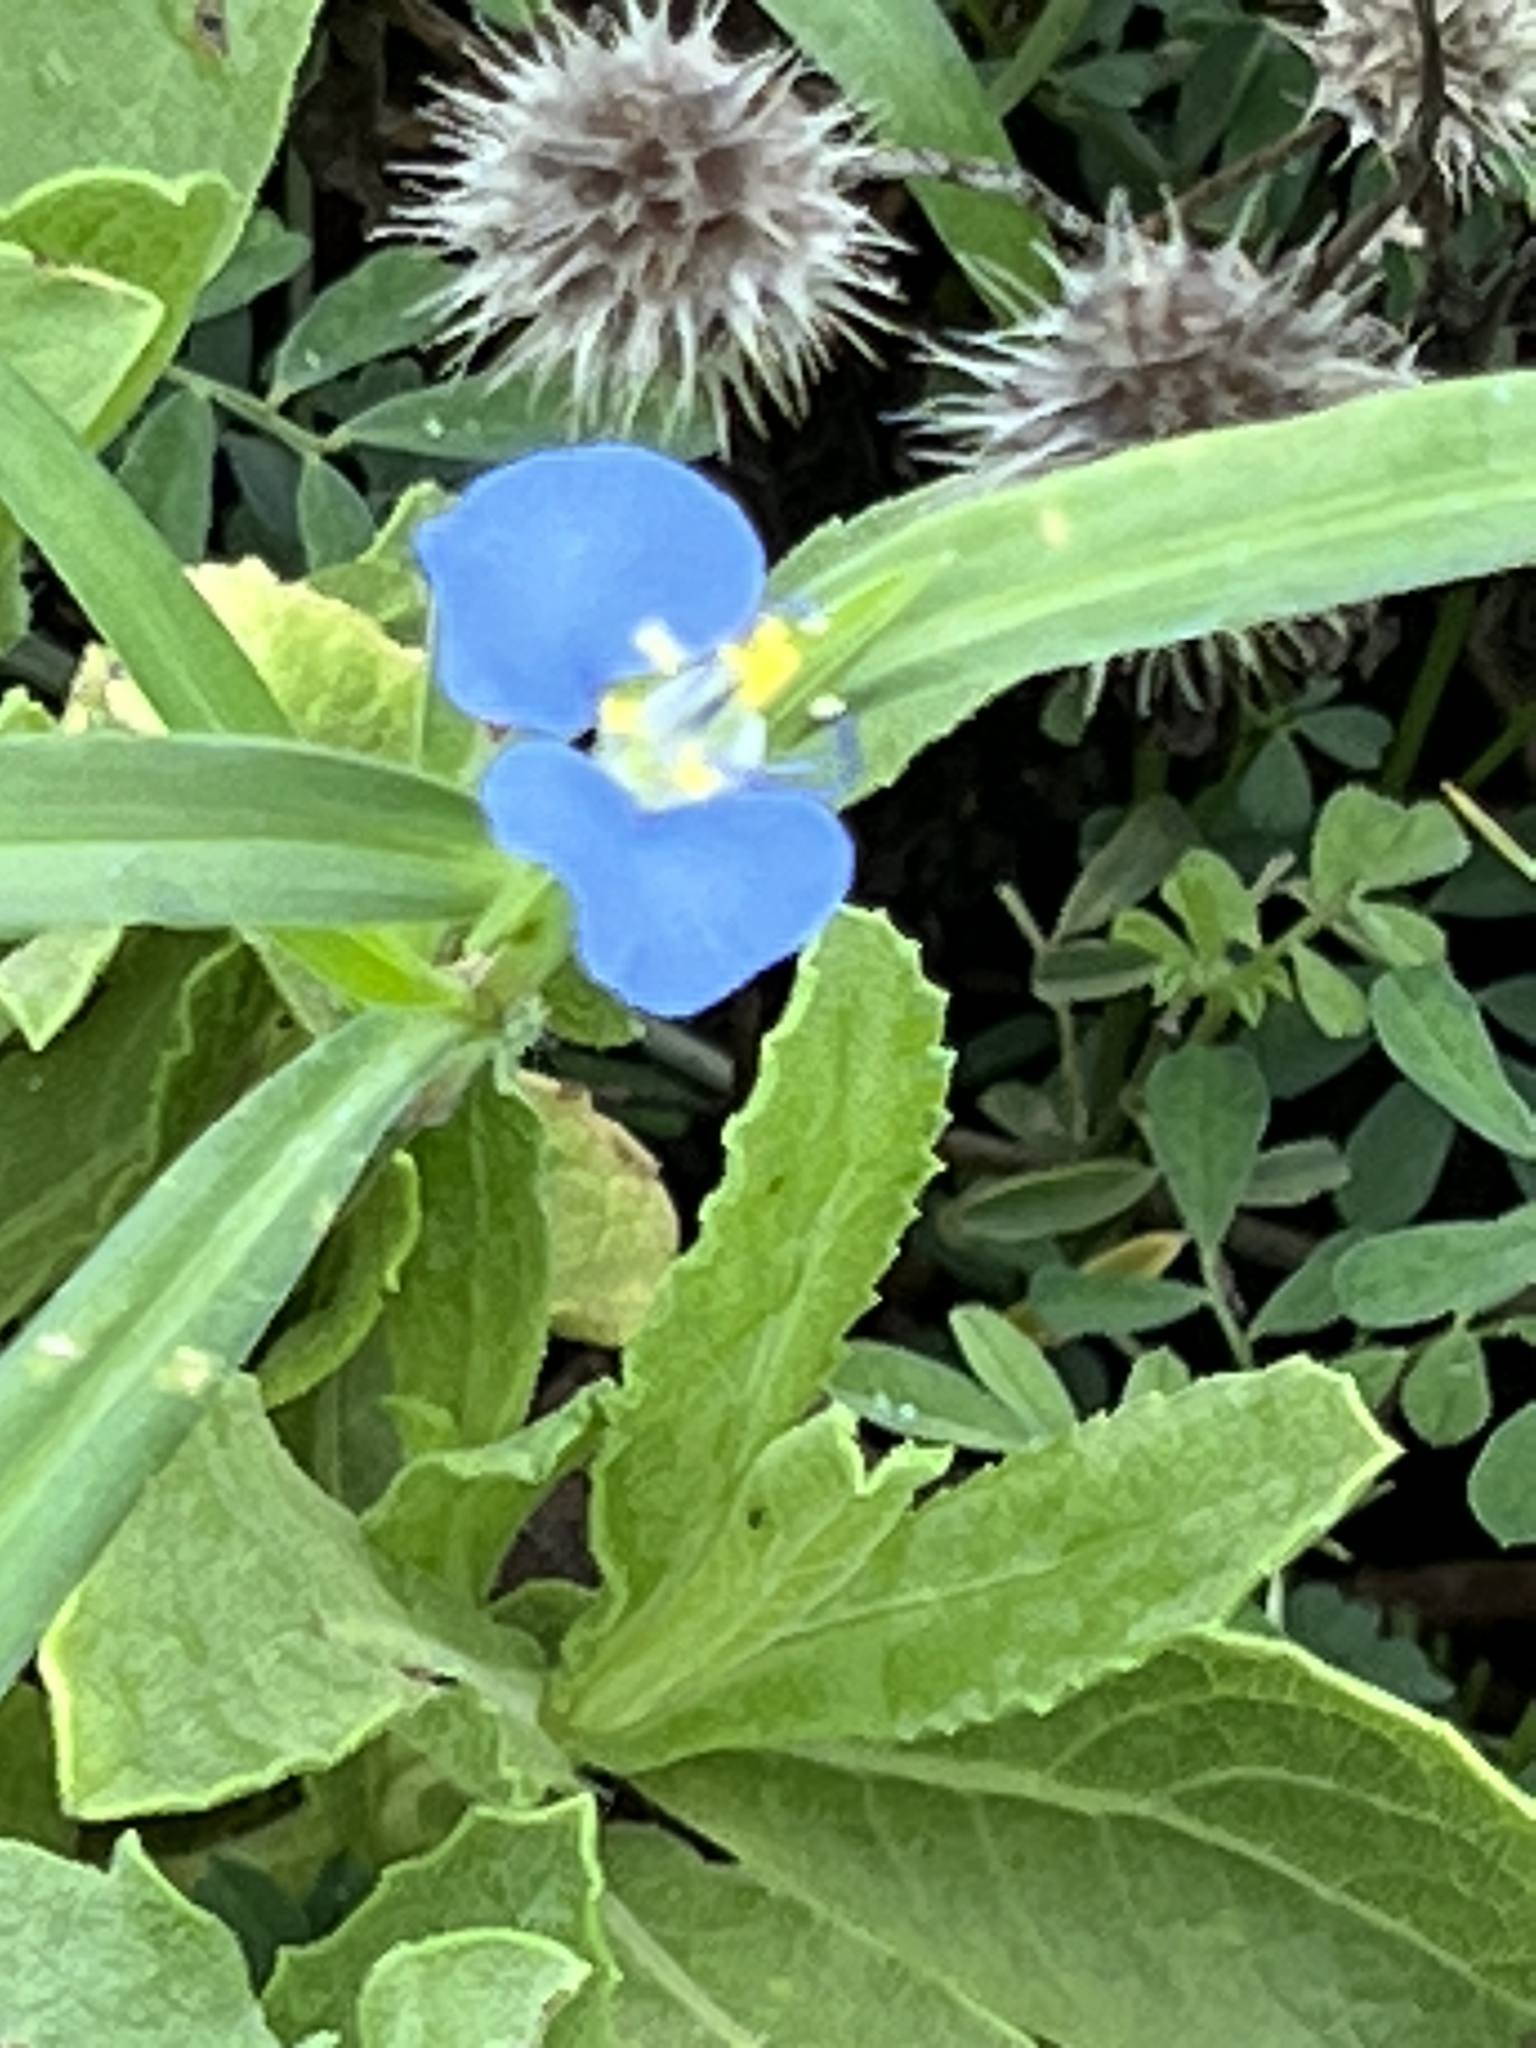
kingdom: Plantae
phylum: Tracheophyta
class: Liliopsida
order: Commelinales
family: Commelinaceae
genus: Commelina
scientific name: Commelina erecta
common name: Blousel blommetjie
